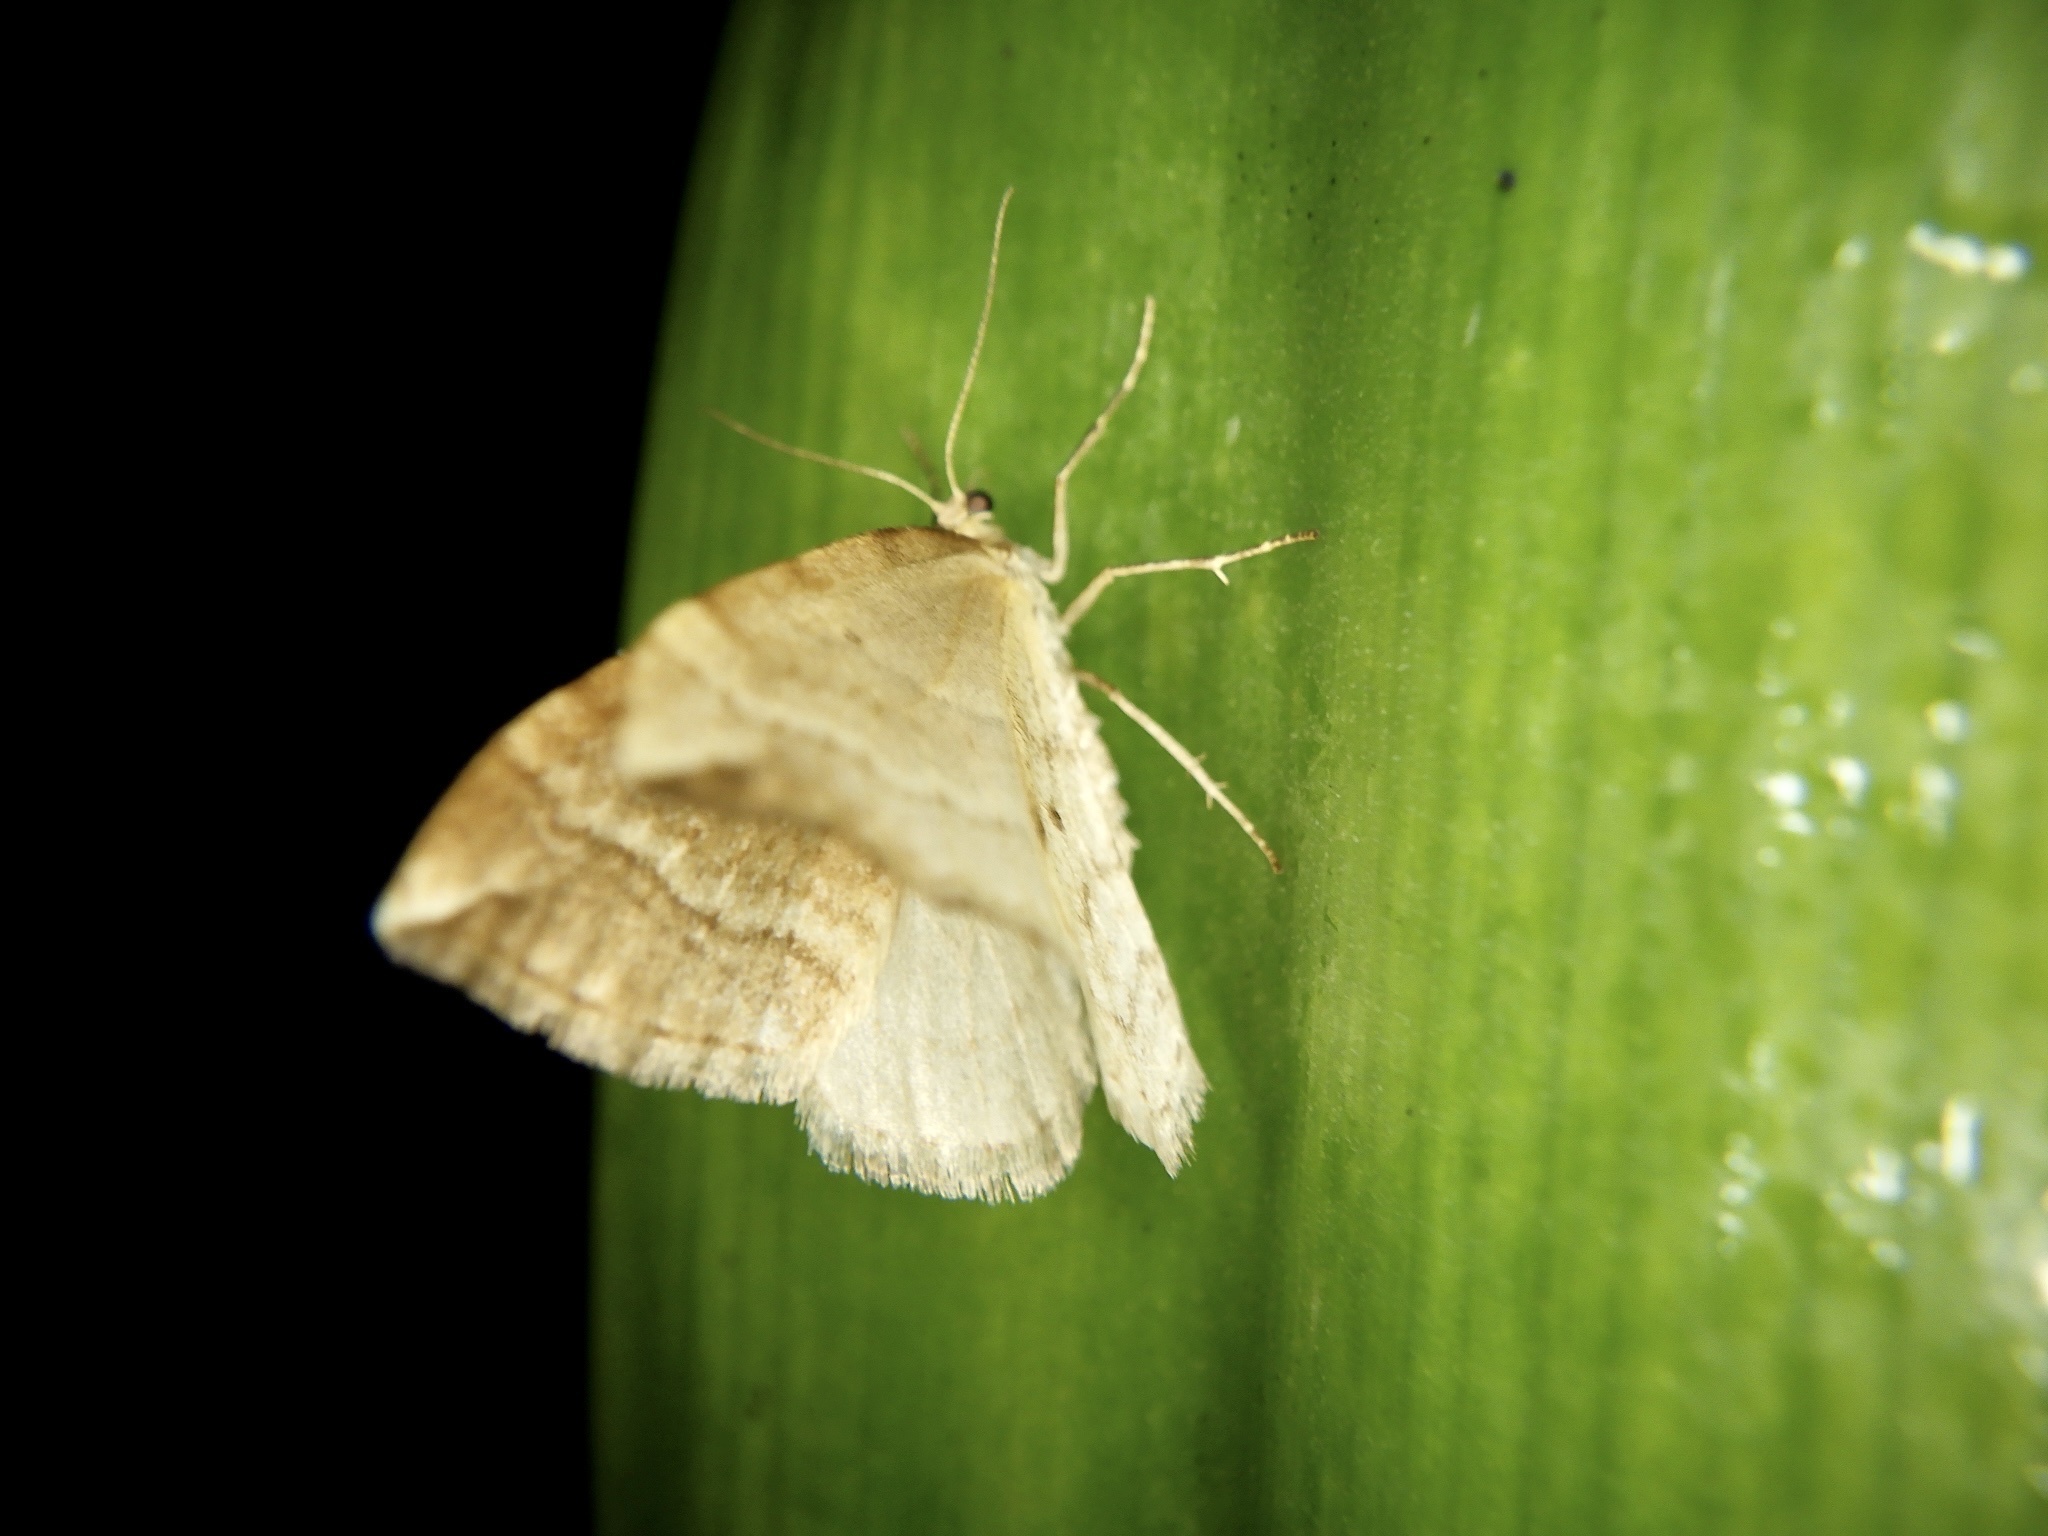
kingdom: Animalia
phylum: Arthropoda
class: Insecta
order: Lepidoptera
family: Geometridae
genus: Nothoporinia
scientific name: Nothoporinia mediolineata
